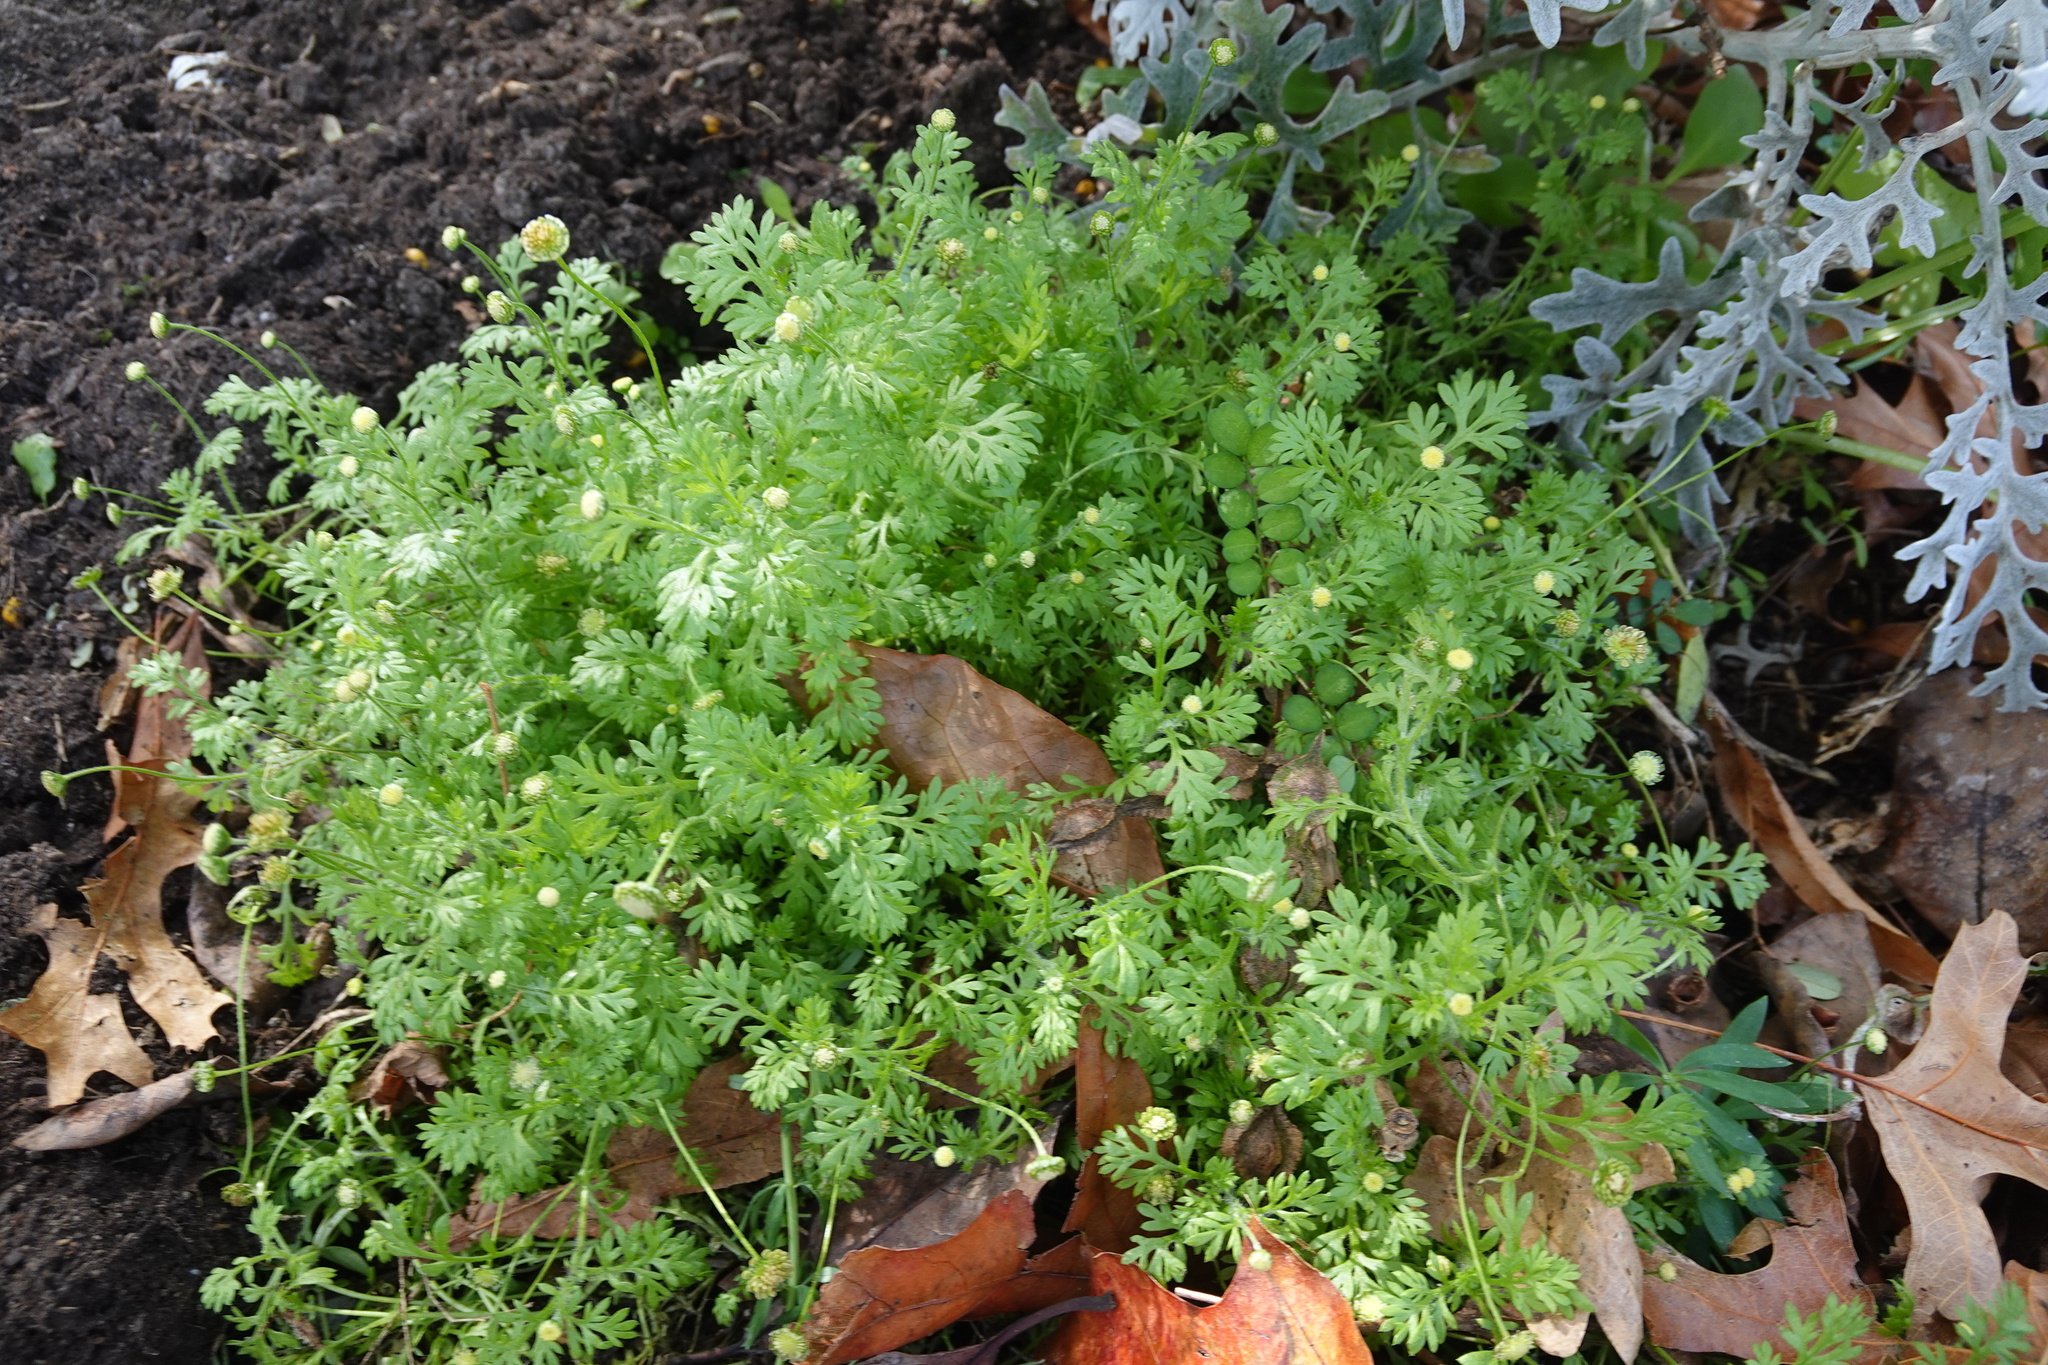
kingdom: Plantae
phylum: Tracheophyta
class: Magnoliopsida
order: Asterales
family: Asteraceae
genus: Cotula
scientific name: Cotula australis
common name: Australian waterbuttons
